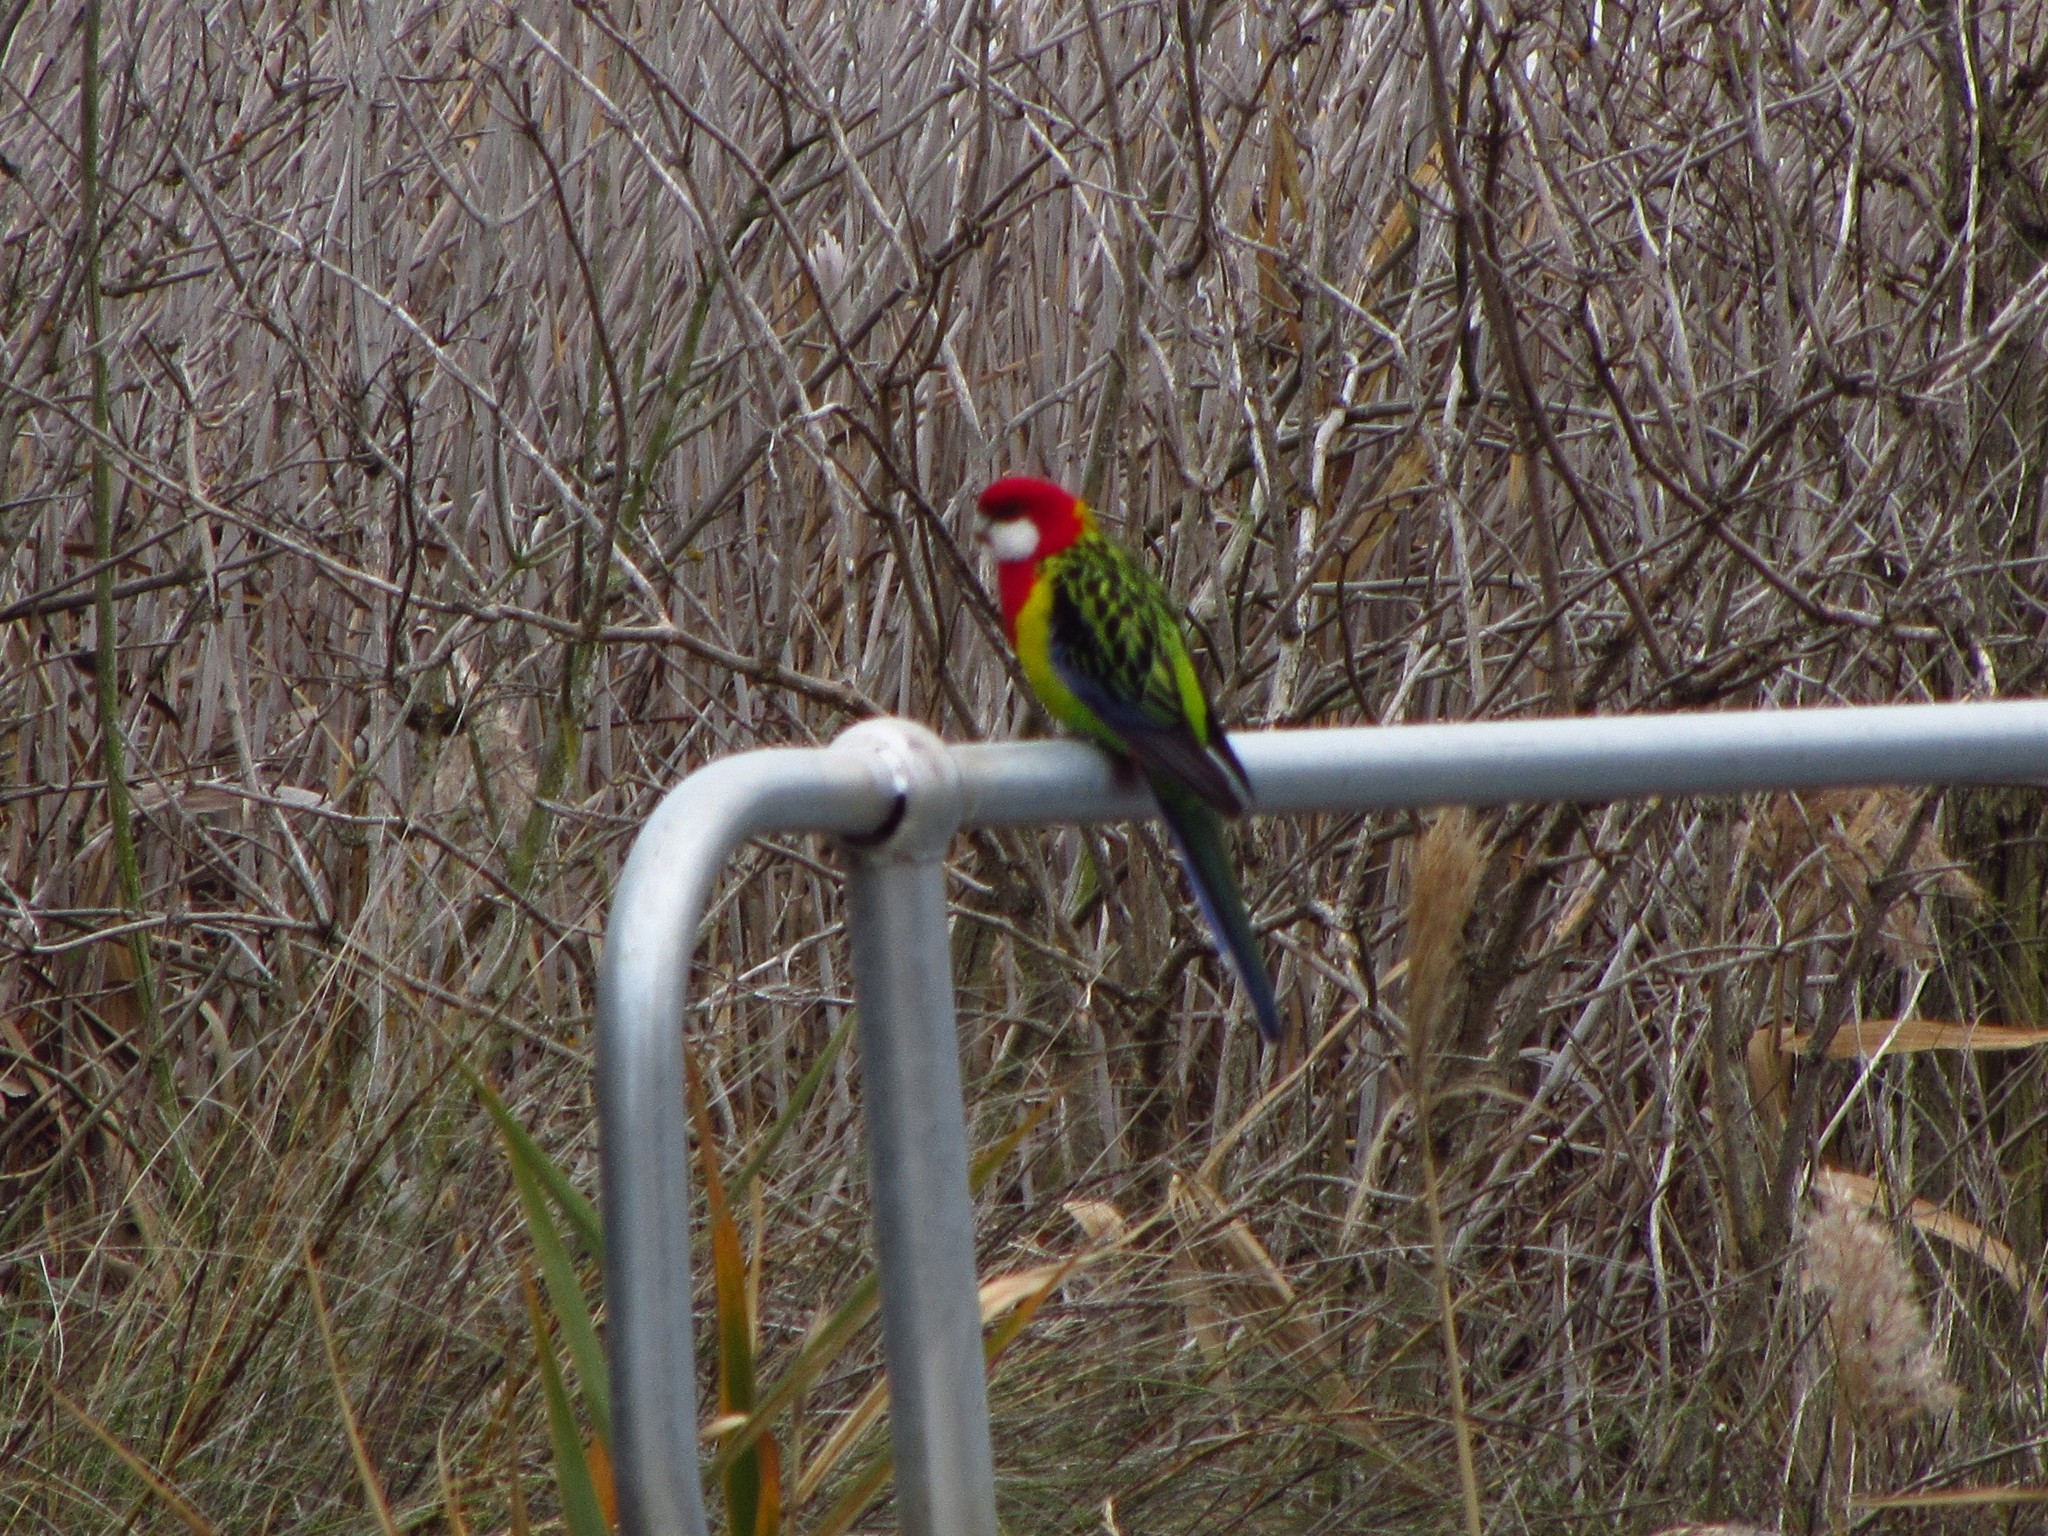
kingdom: Animalia
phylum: Chordata
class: Aves
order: Psittaciformes
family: Psittacidae
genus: Platycercus
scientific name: Platycercus eximius
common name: Eastern rosella
